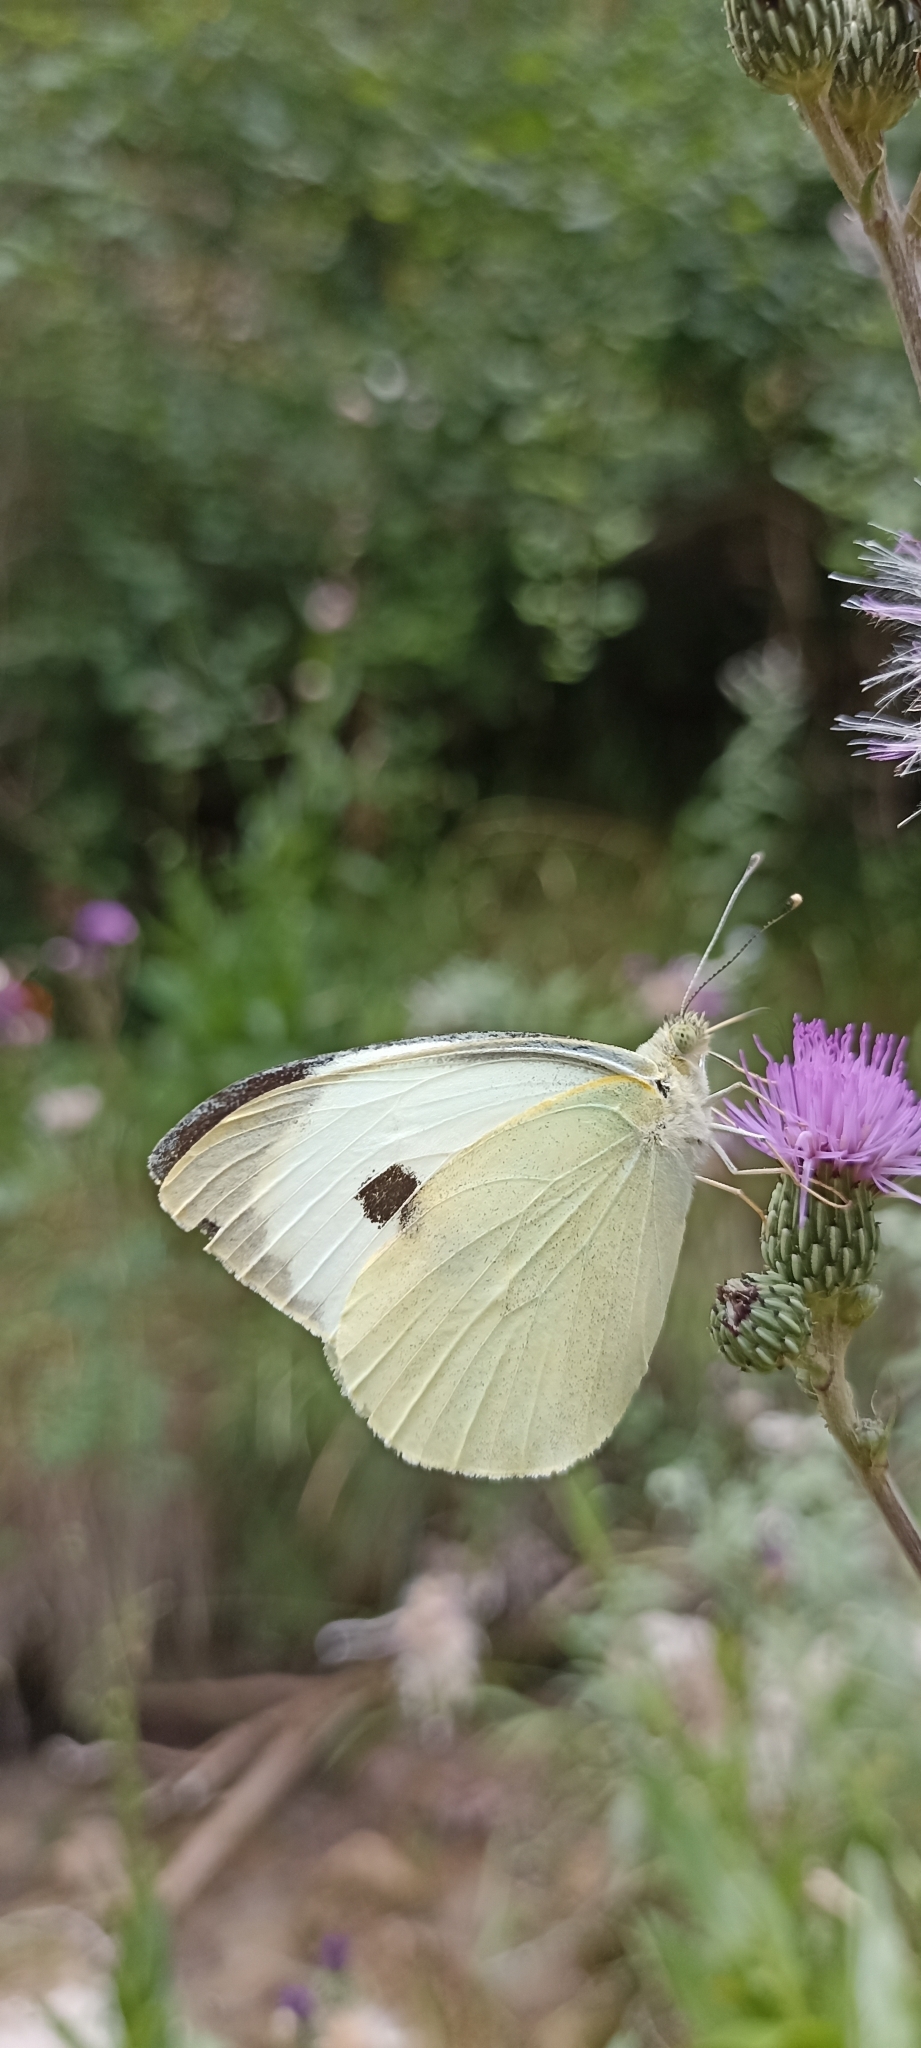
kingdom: Animalia
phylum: Arthropoda
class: Insecta
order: Lepidoptera
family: Pieridae
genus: Pieris
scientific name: Pieris brassicae
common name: Large white
